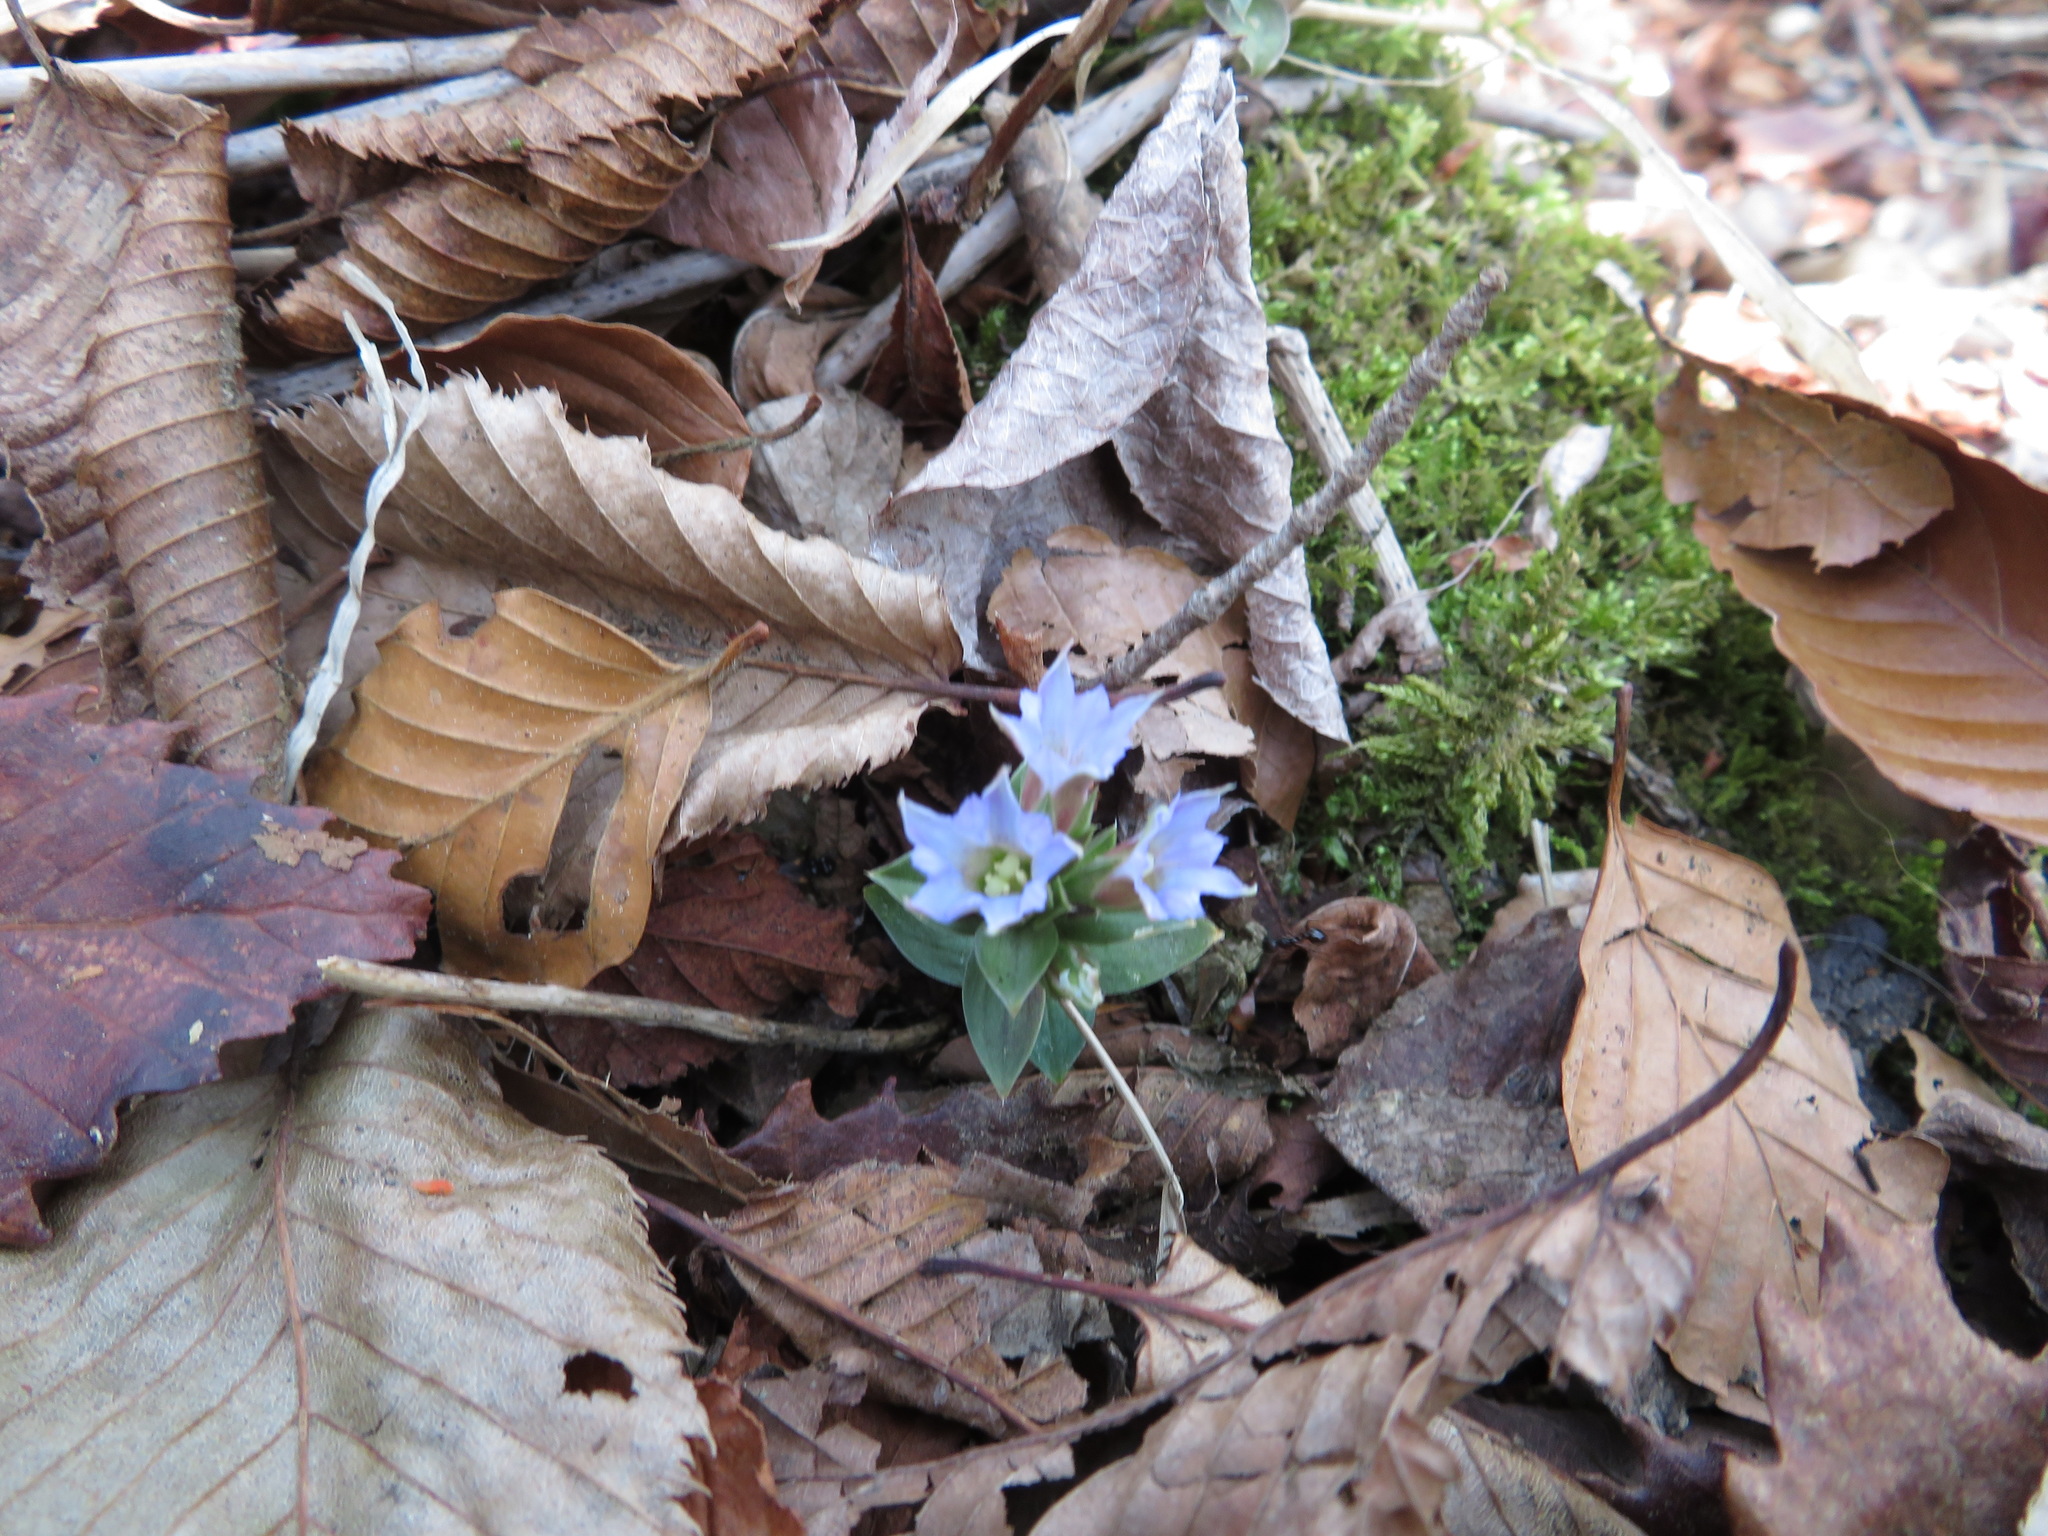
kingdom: Plantae
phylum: Tracheophyta
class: Magnoliopsida
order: Gentianales
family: Gentianaceae
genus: Gentiana
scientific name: Gentiana zollingeri
